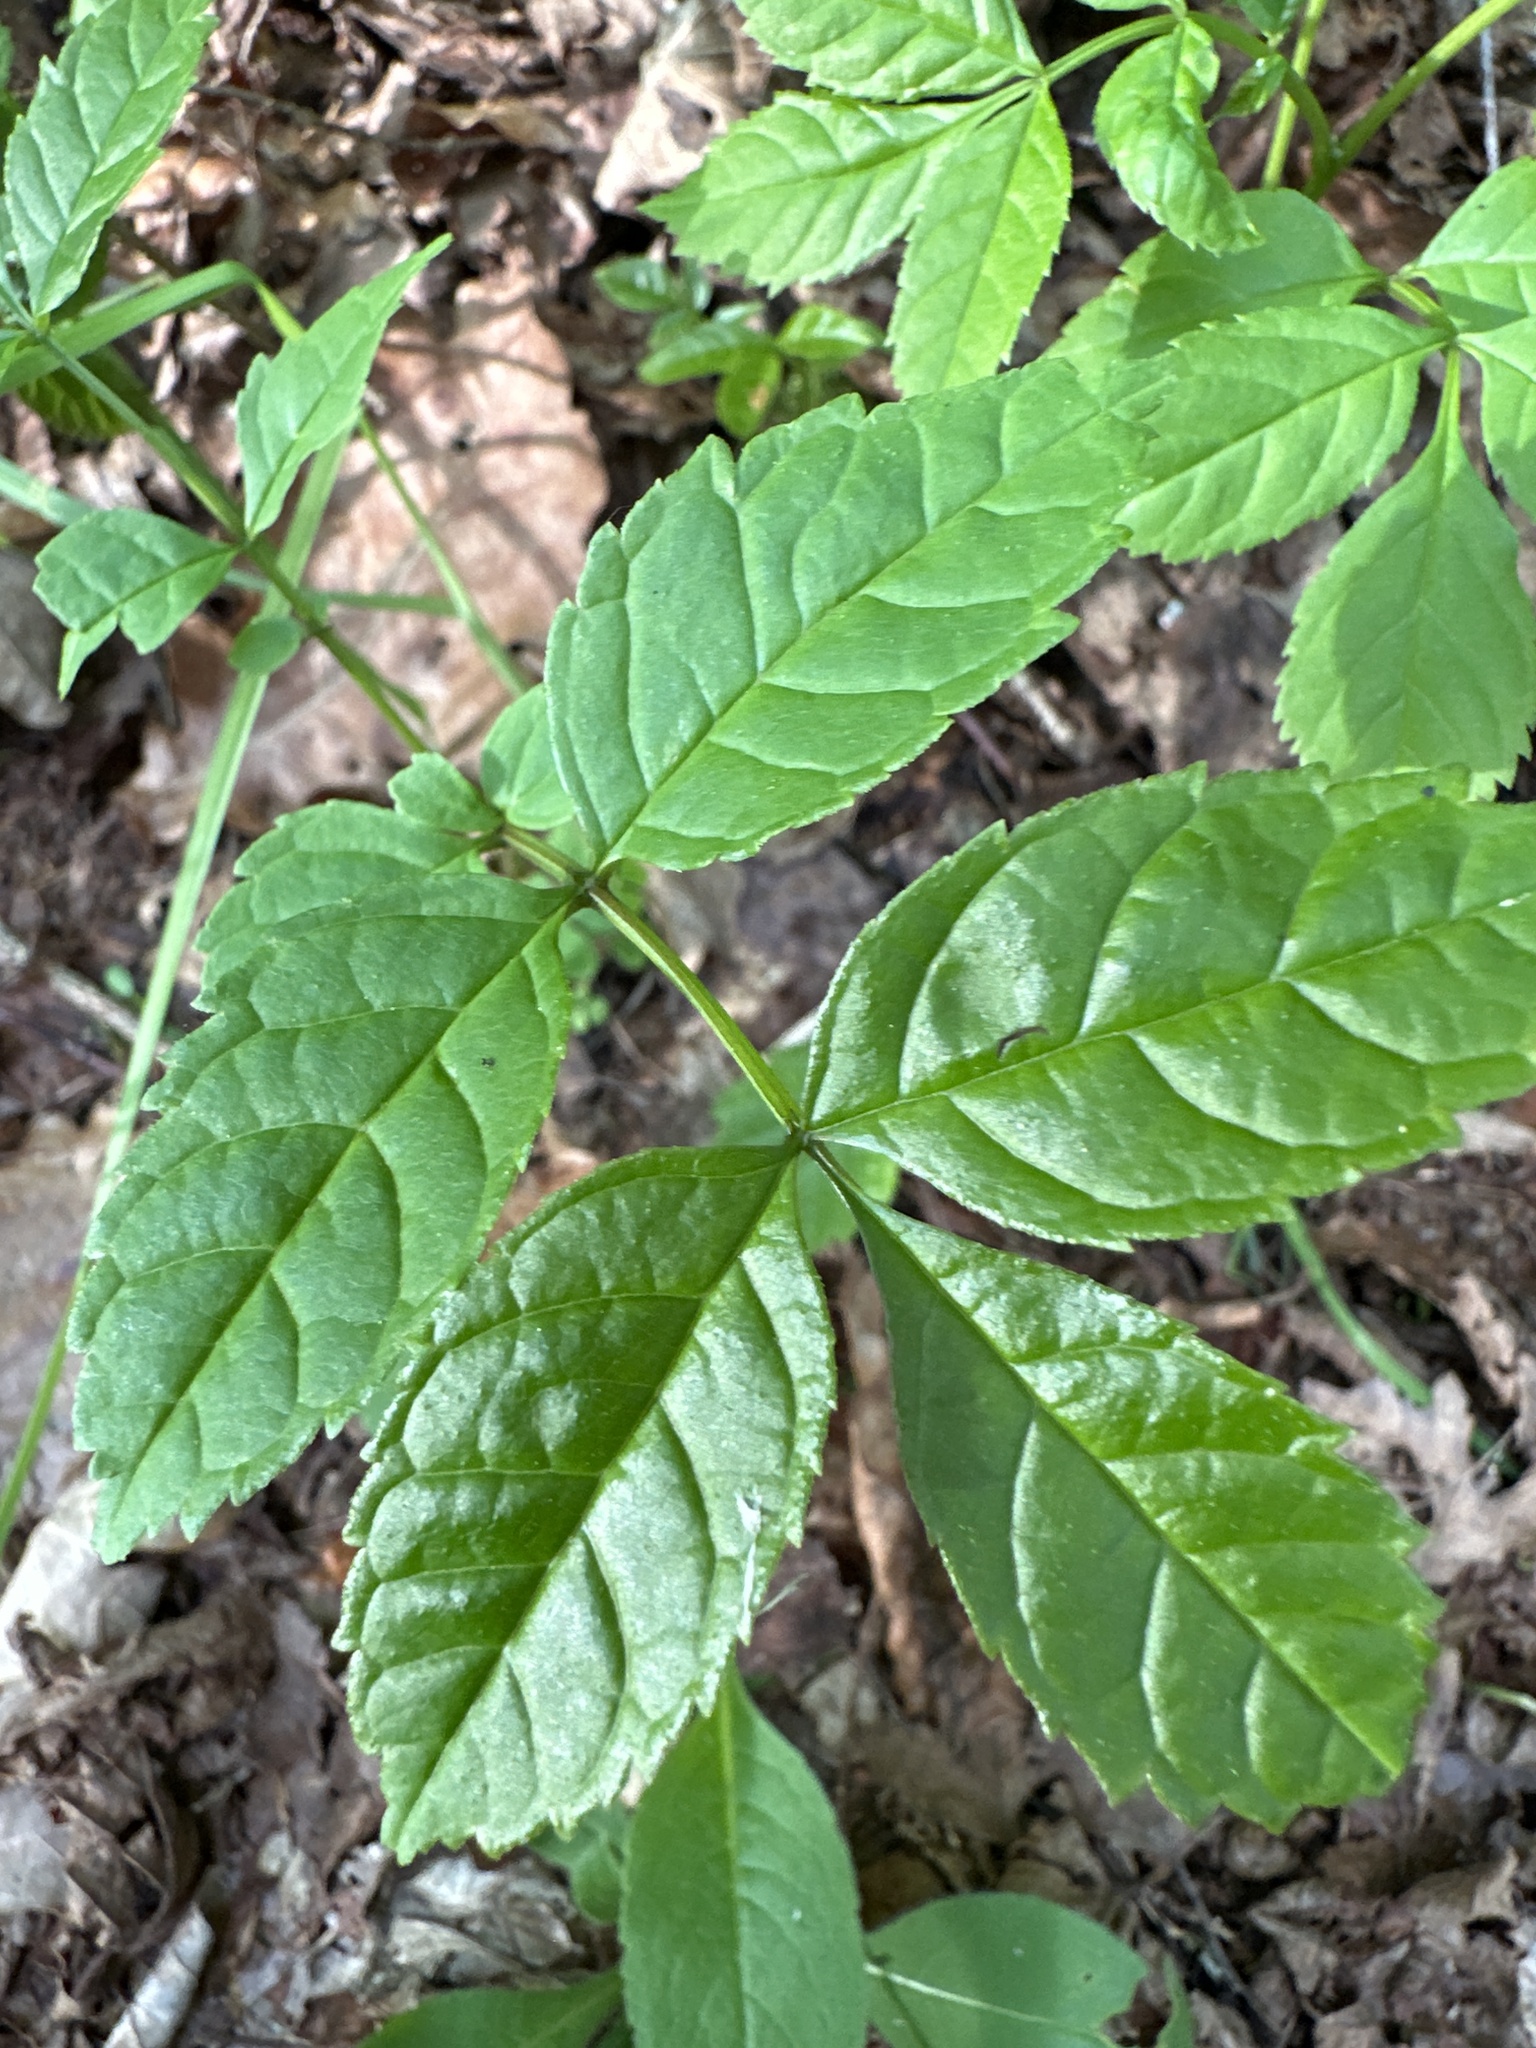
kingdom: Plantae
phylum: Tracheophyta
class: Magnoliopsida
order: Lamiales
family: Oleaceae
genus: Fraxinus
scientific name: Fraxinus excelsior
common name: European ash
